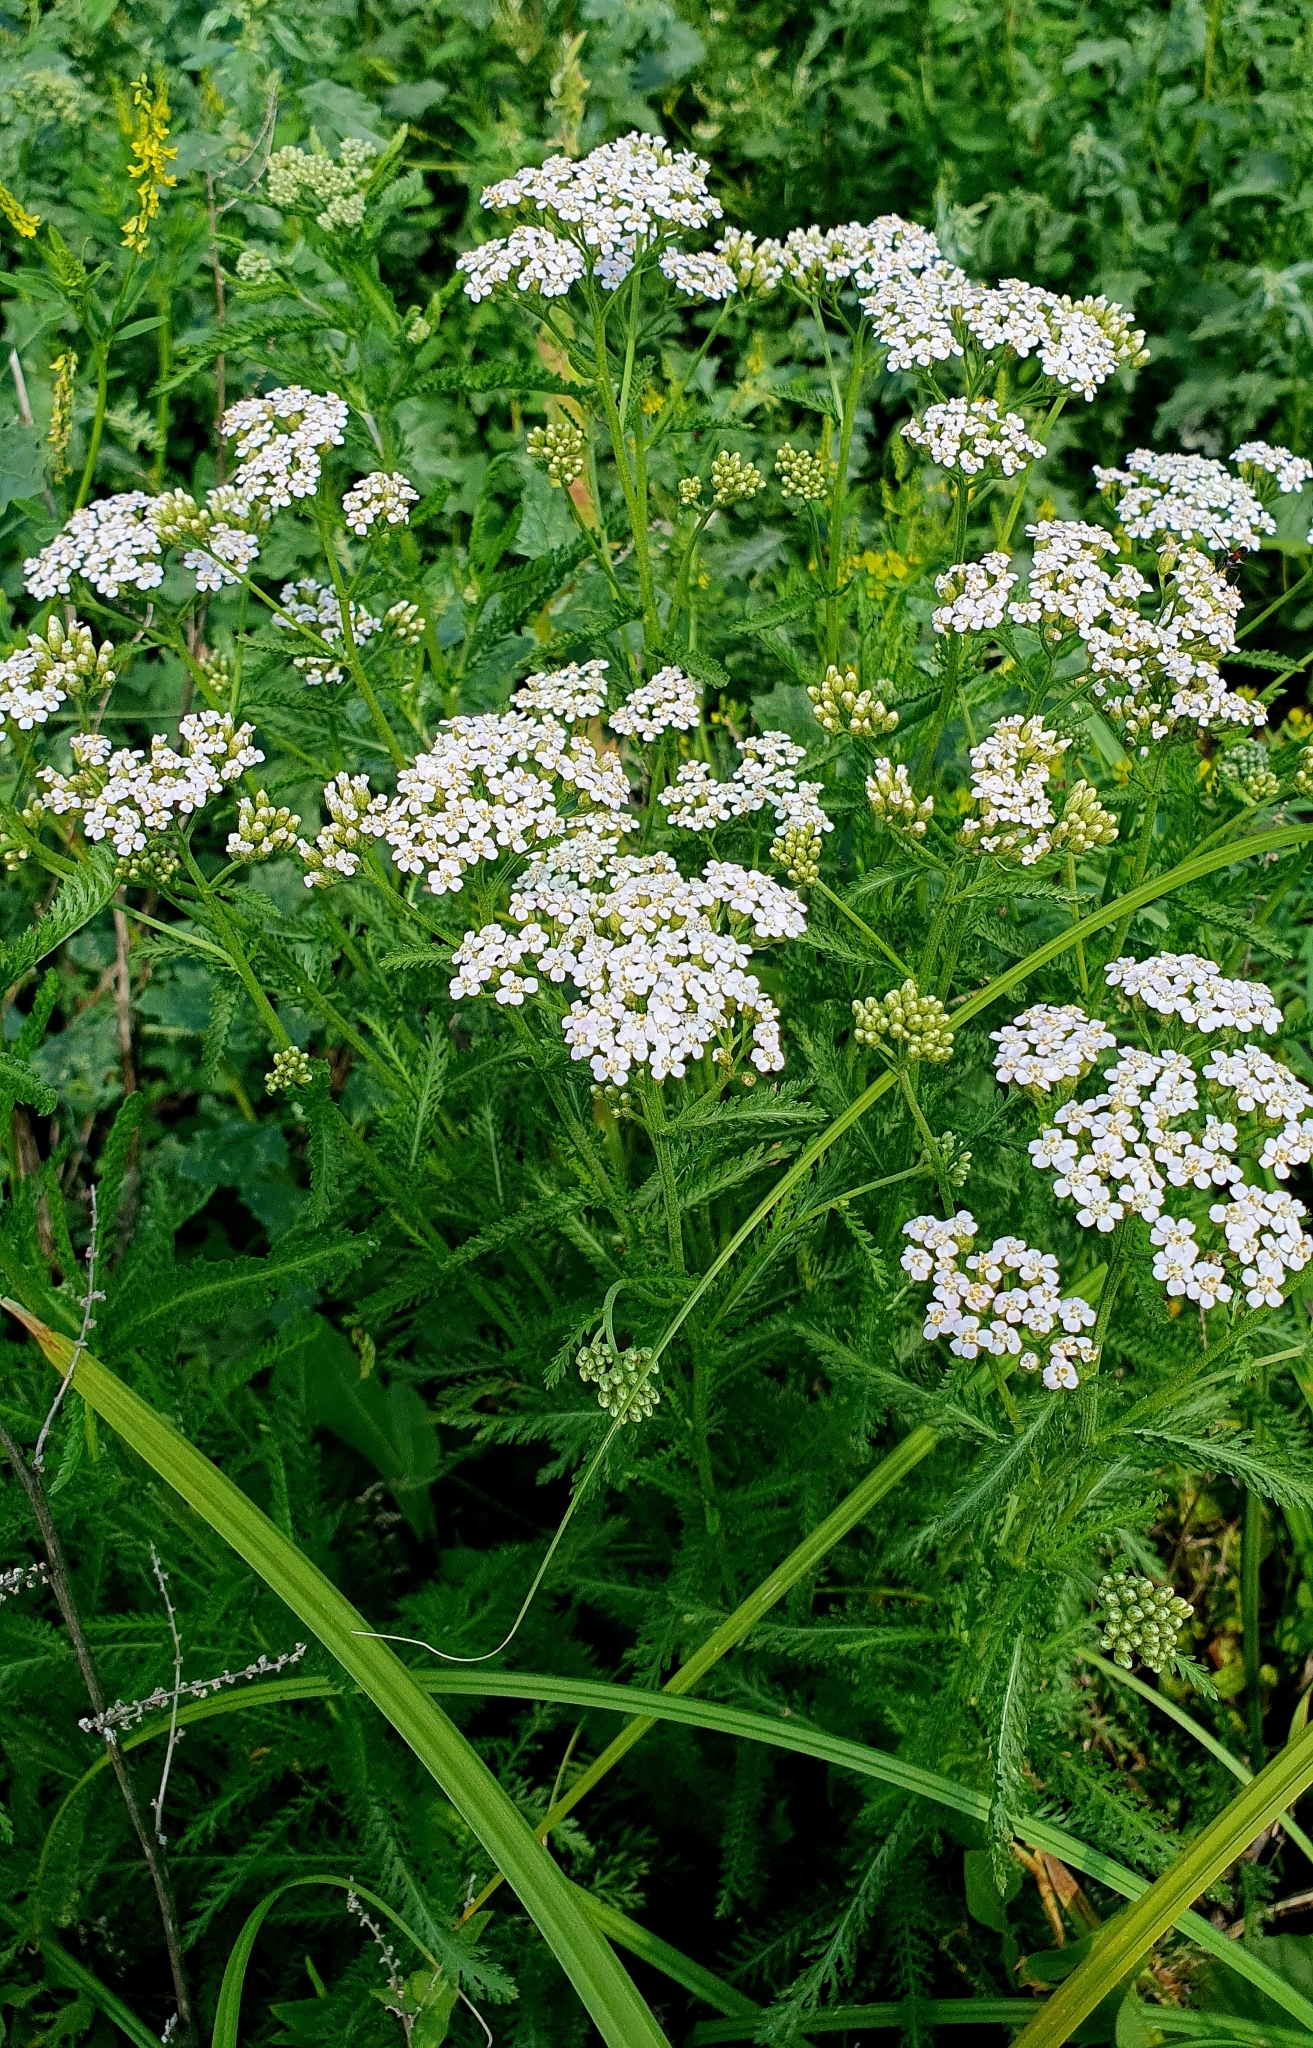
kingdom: Plantae
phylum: Tracheophyta
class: Magnoliopsida
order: Asterales
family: Asteraceae
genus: Achillea
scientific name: Achillea millefolium
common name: Yarrow
